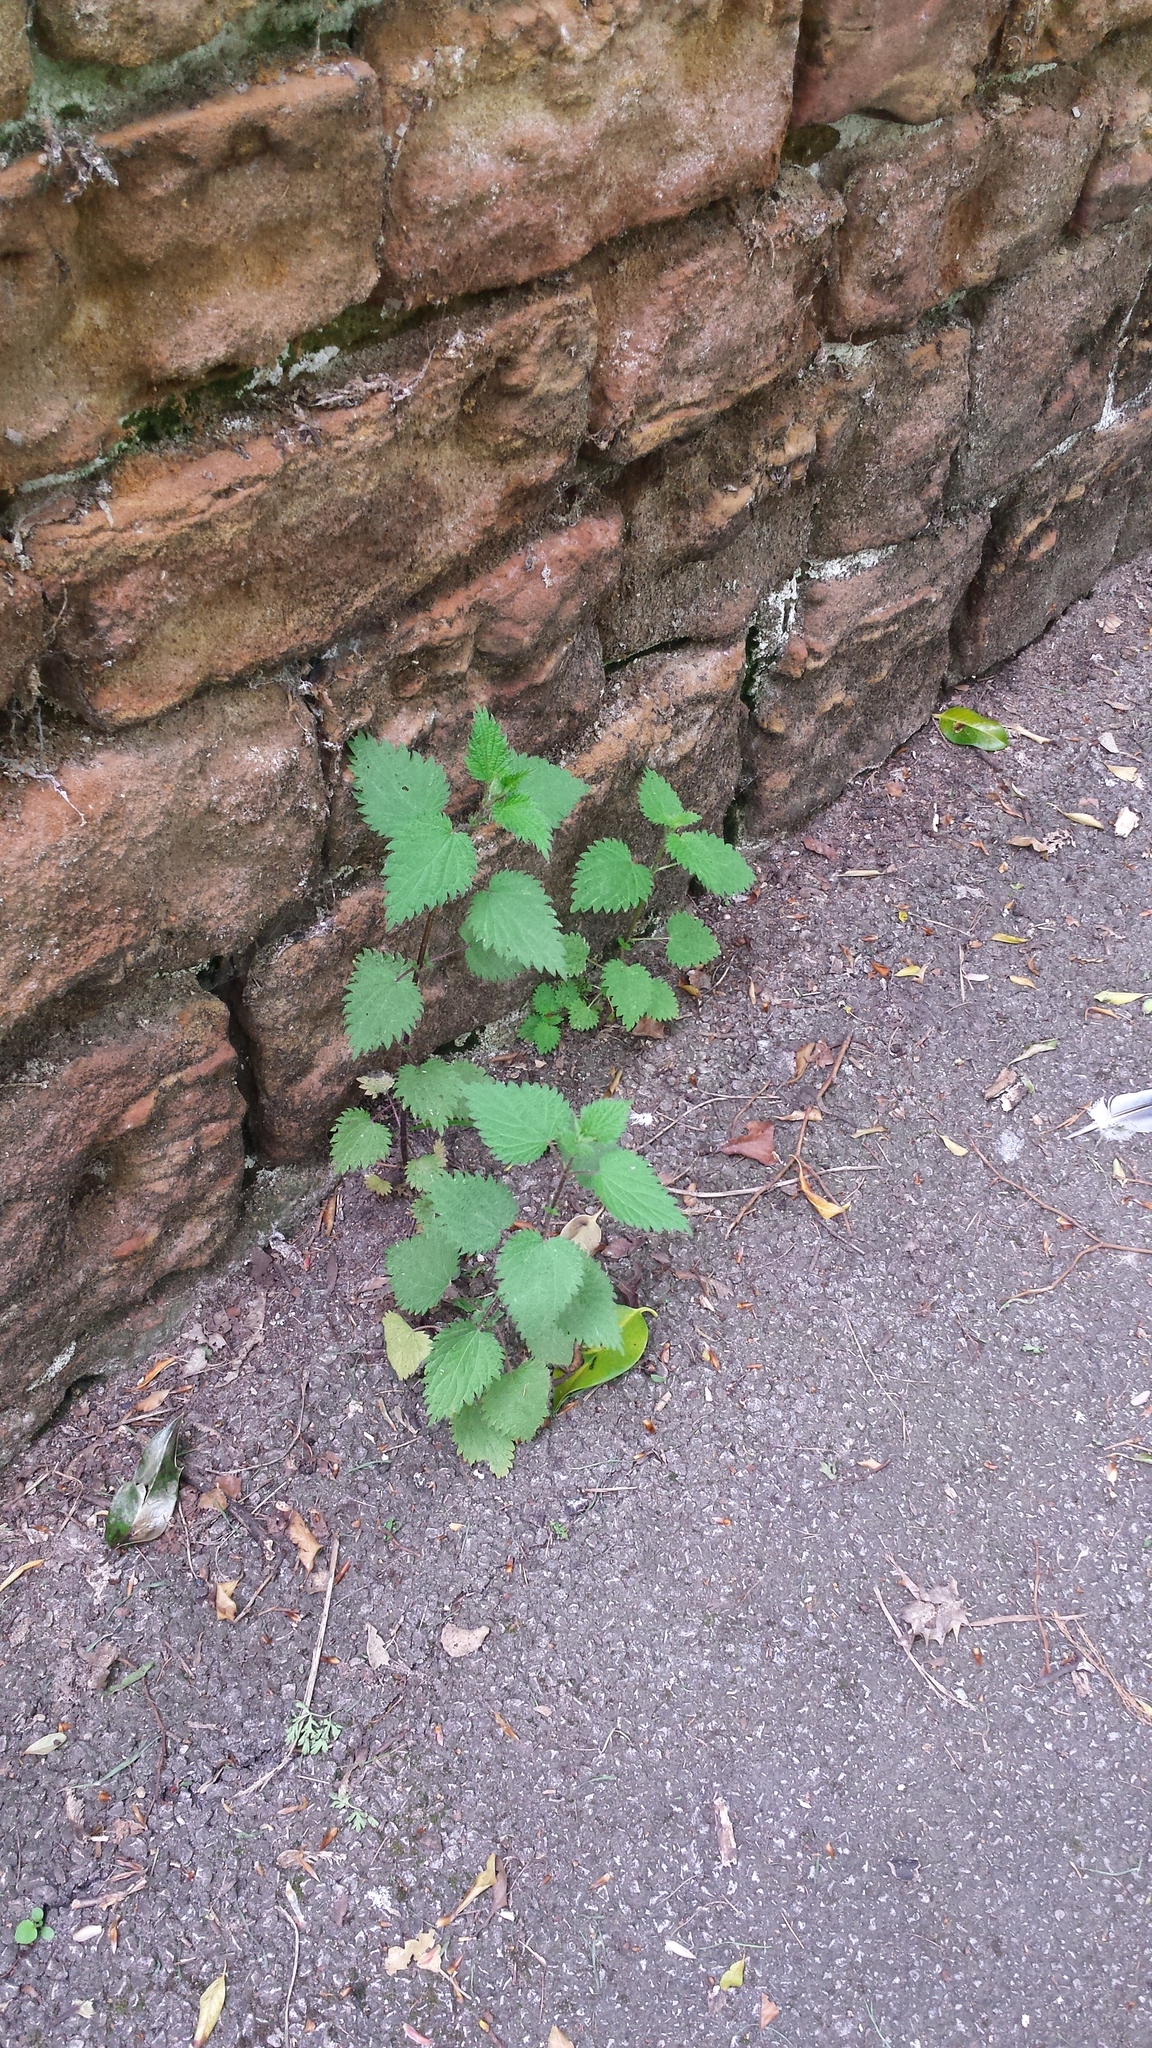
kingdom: Plantae
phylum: Tracheophyta
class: Magnoliopsida
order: Rosales
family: Urticaceae
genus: Urtica
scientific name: Urtica dioica
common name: Common nettle
